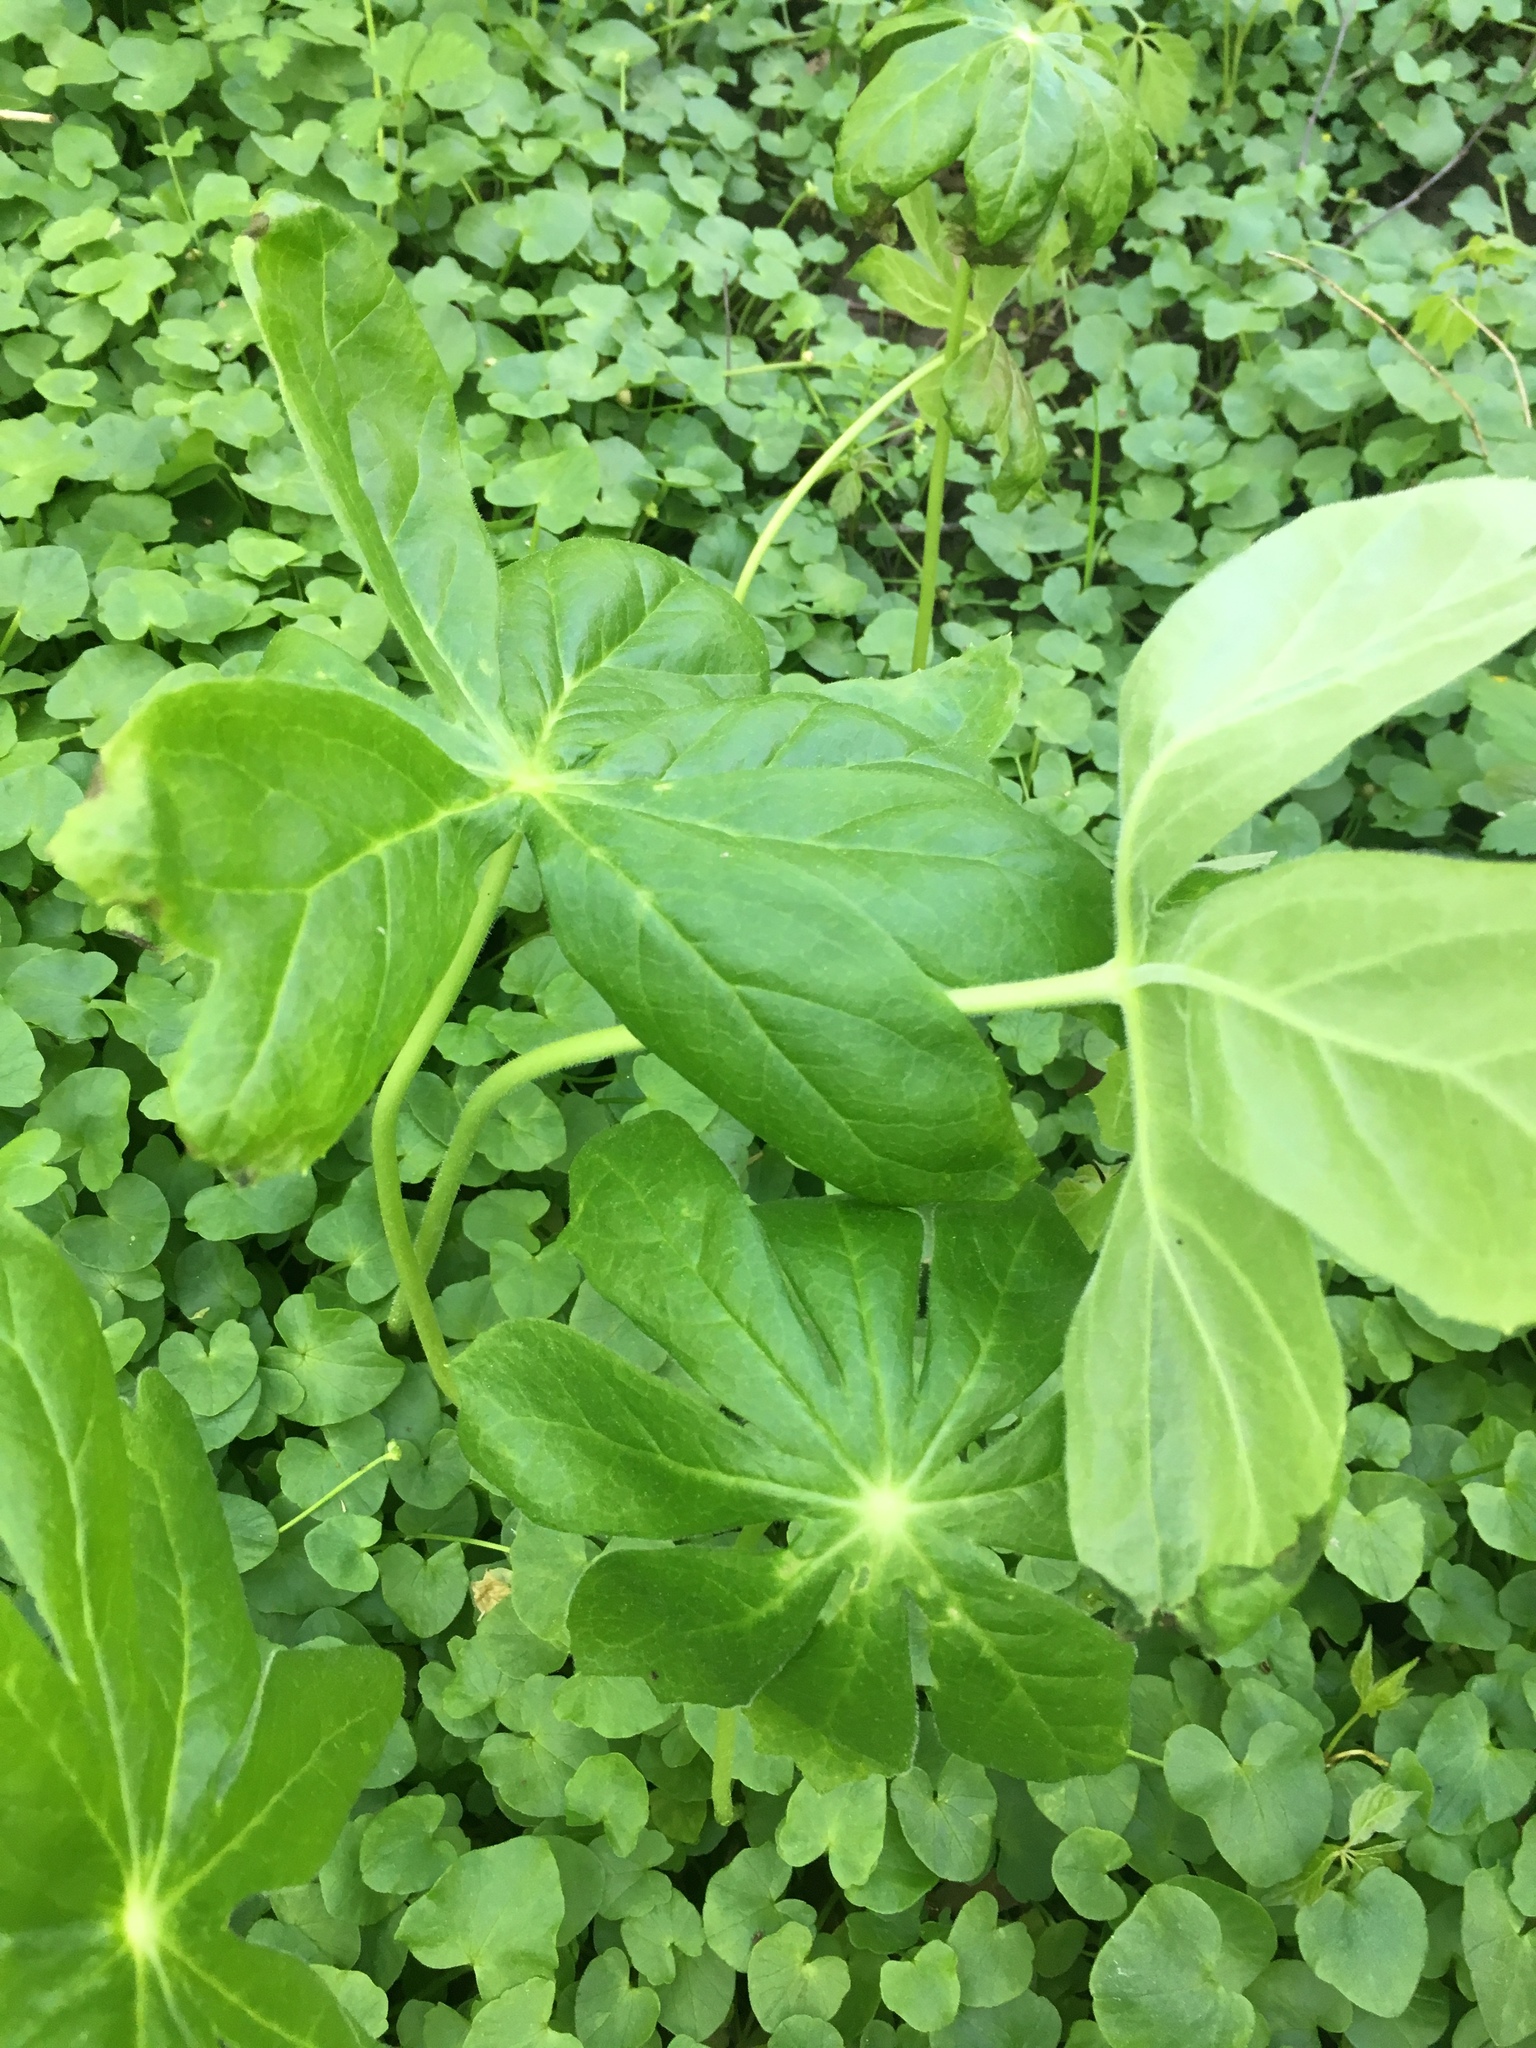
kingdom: Plantae
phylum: Tracheophyta
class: Magnoliopsida
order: Ranunculales
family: Berberidaceae
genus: Podophyllum
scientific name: Podophyllum peltatum
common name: Wild mandrake
